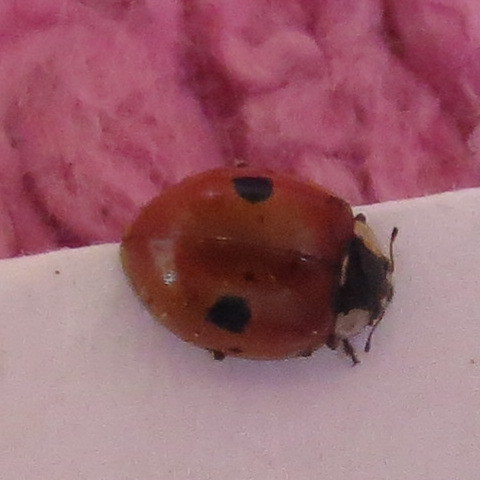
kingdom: Animalia
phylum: Arthropoda
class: Insecta
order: Coleoptera
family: Coccinellidae
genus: Adalia
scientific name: Adalia bipunctata
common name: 2-spot ladybird
